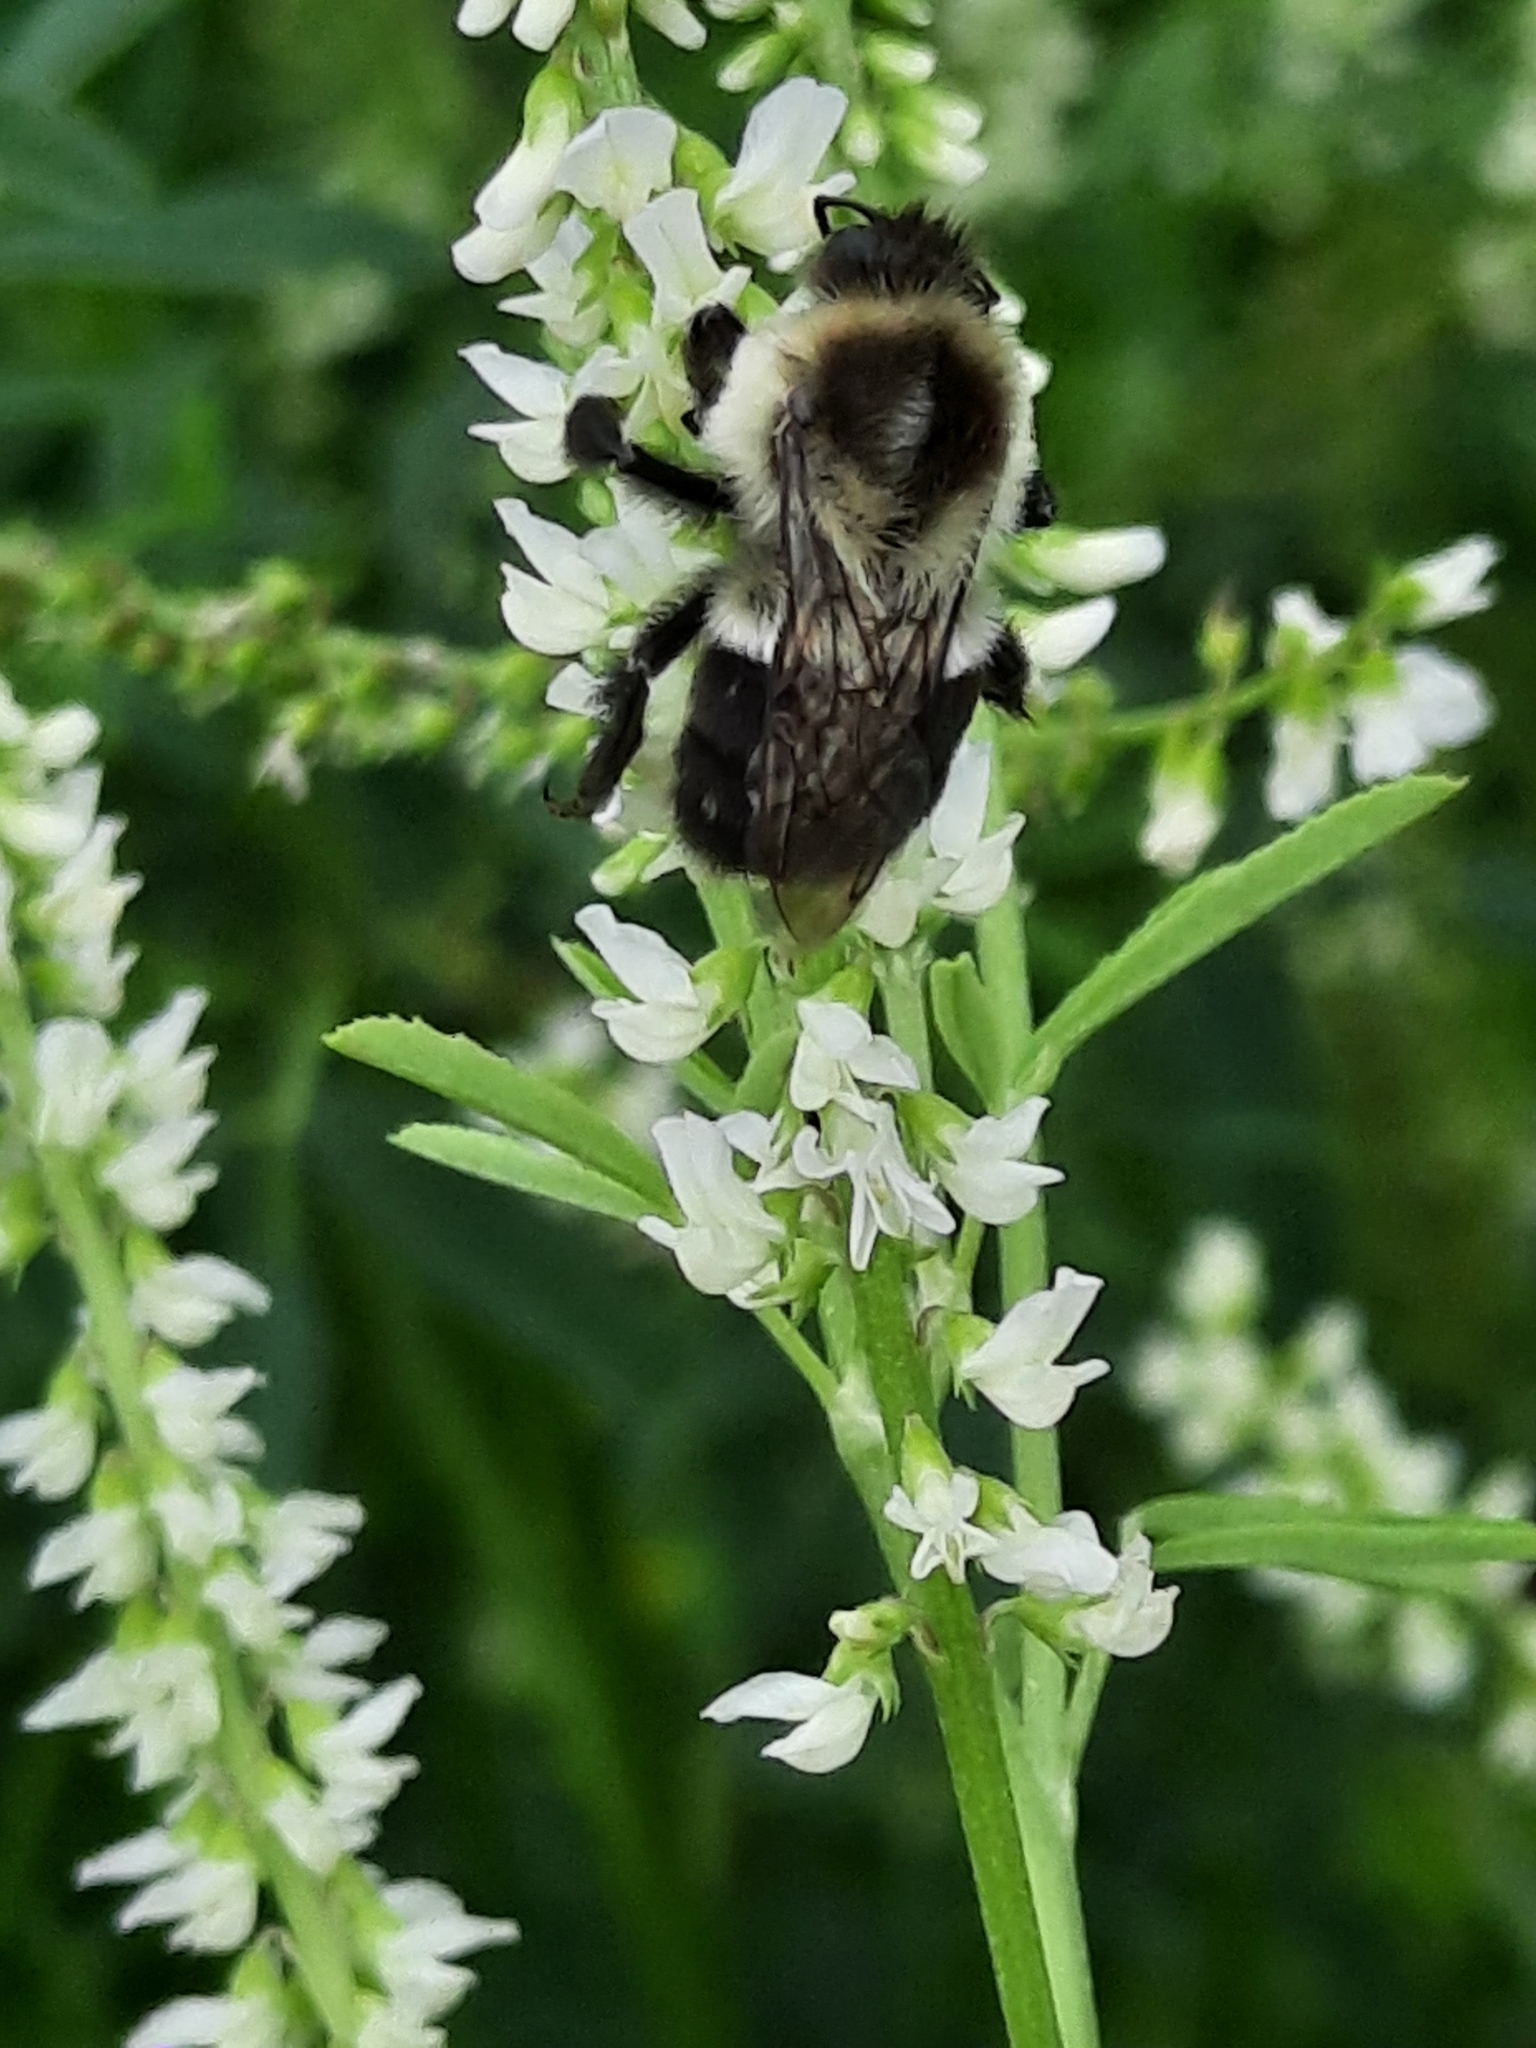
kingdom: Animalia
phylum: Arthropoda
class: Insecta
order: Hymenoptera
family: Apidae
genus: Bombus
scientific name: Bombus impatiens
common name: Common eastern bumble bee
